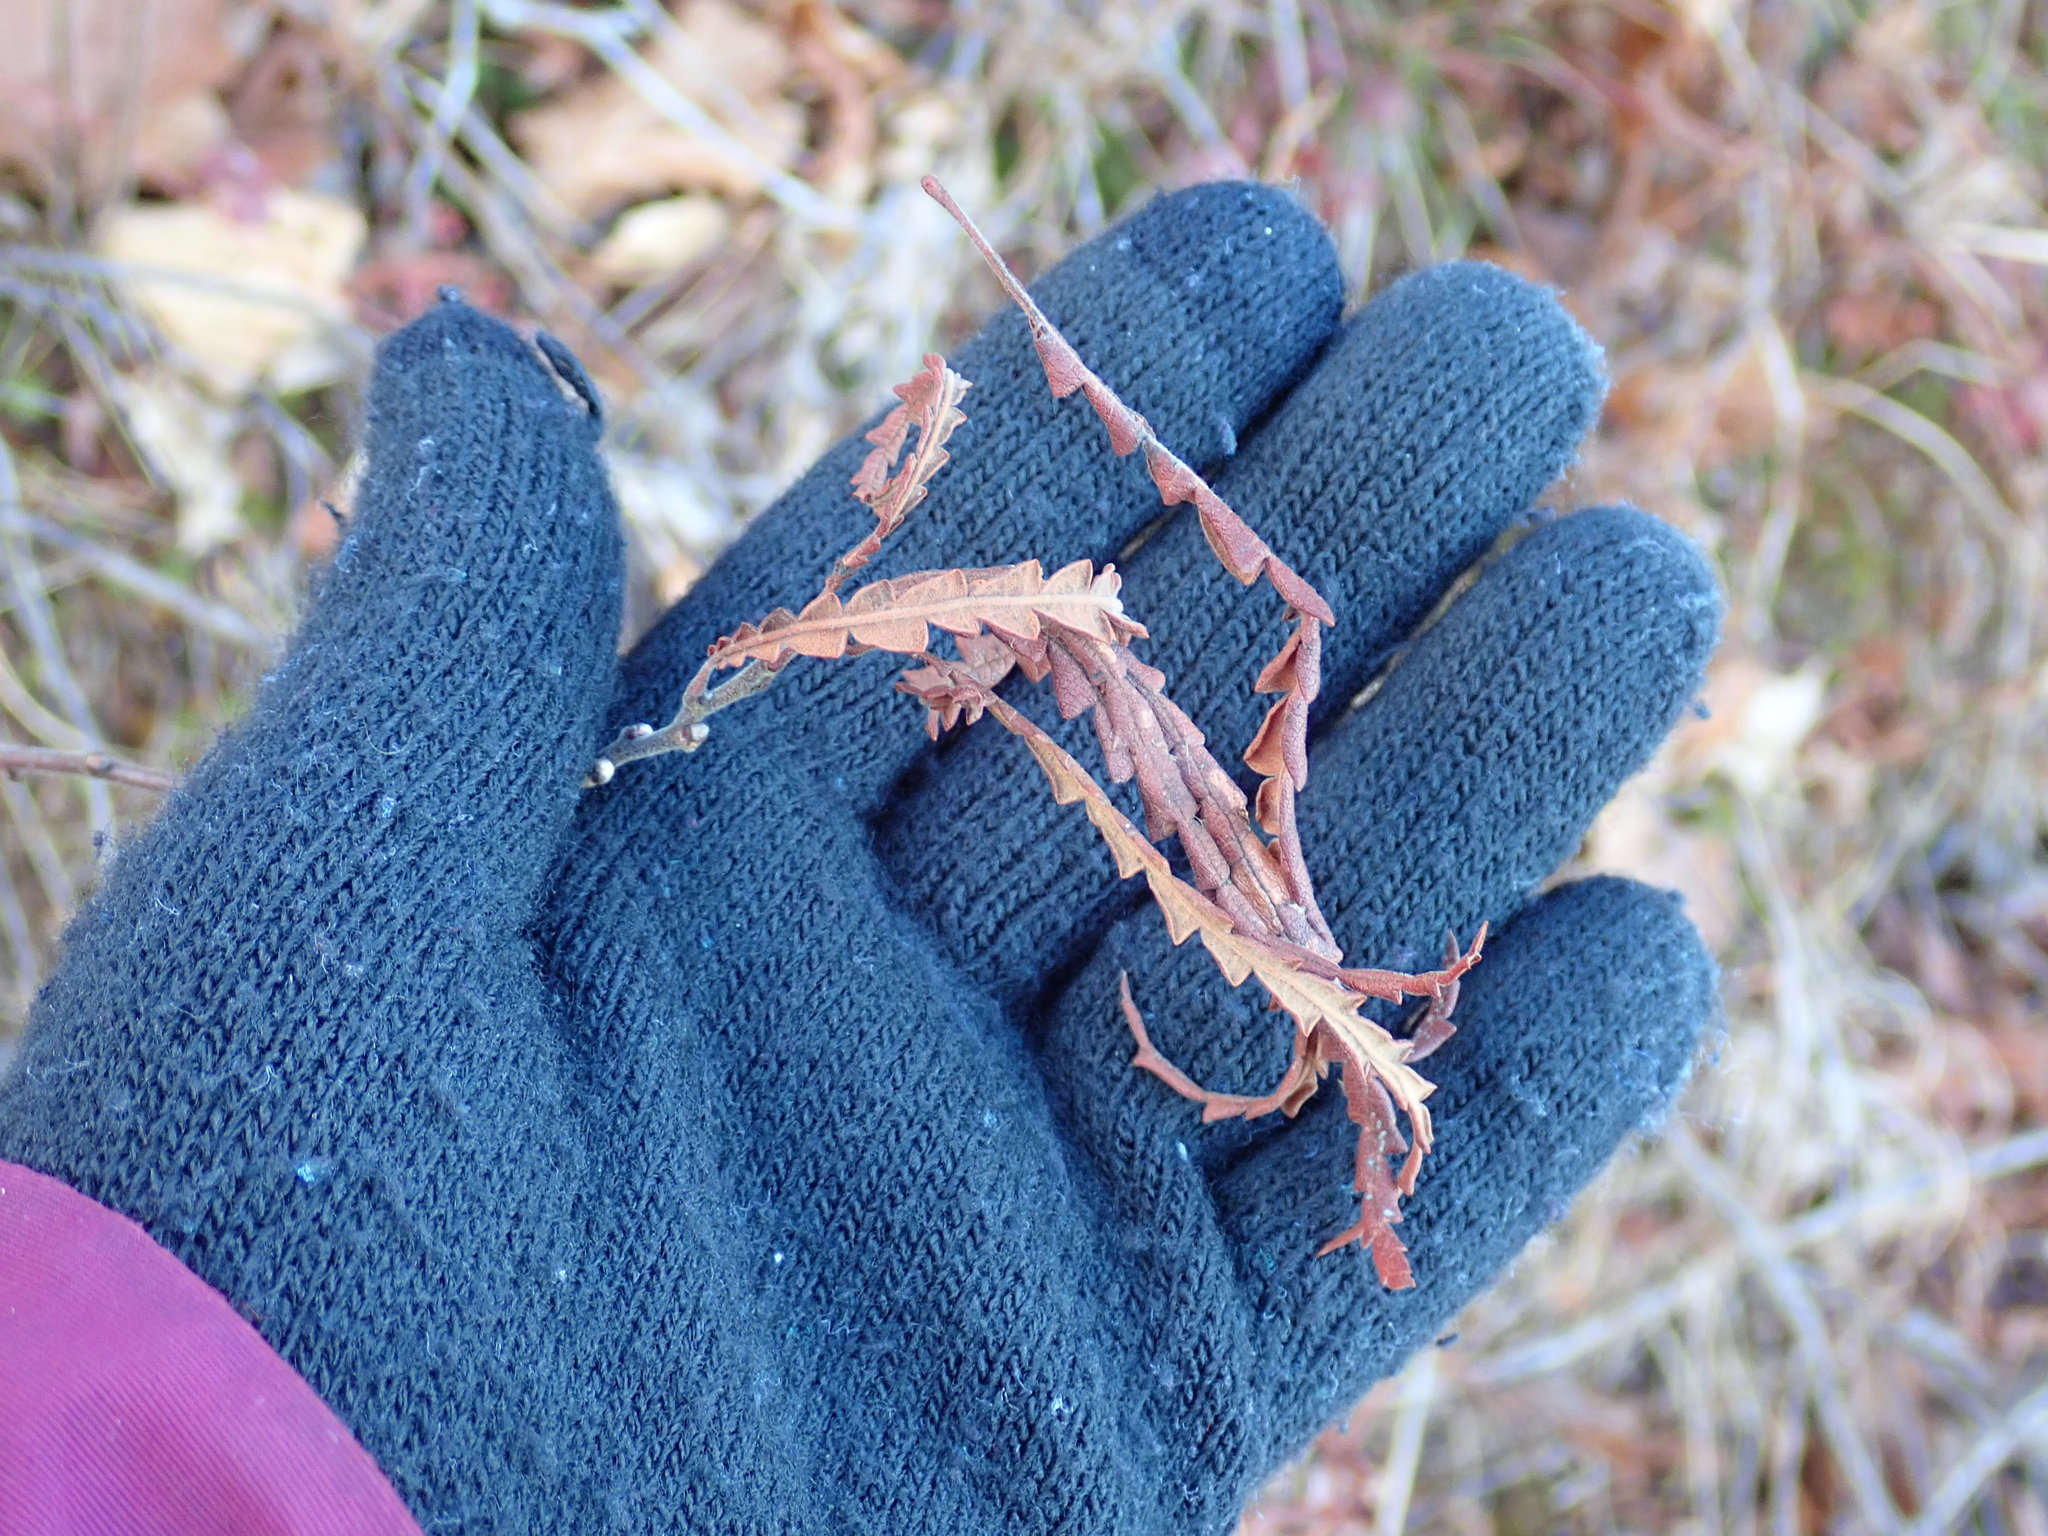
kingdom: Plantae
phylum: Tracheophyta
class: Magnoliopsida
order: Fagales
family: Myricaceae
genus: Comptonia
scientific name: Comptonia peregrina
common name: Sweet-fern
